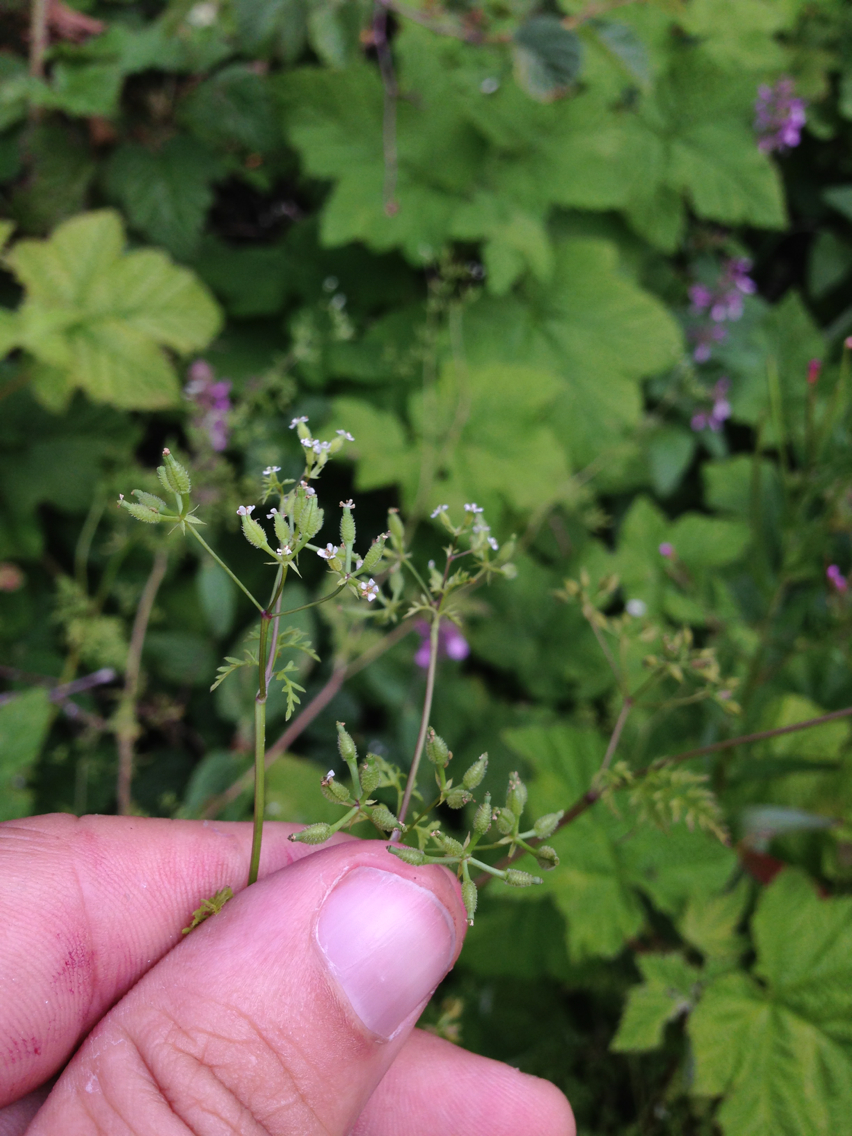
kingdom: Plantae
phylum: Tracheophyta
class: Magnoliopsida
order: Apiales
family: Apiaceae
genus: Anthriscus
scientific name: Anthriscus caucalis
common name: Bur chervil
